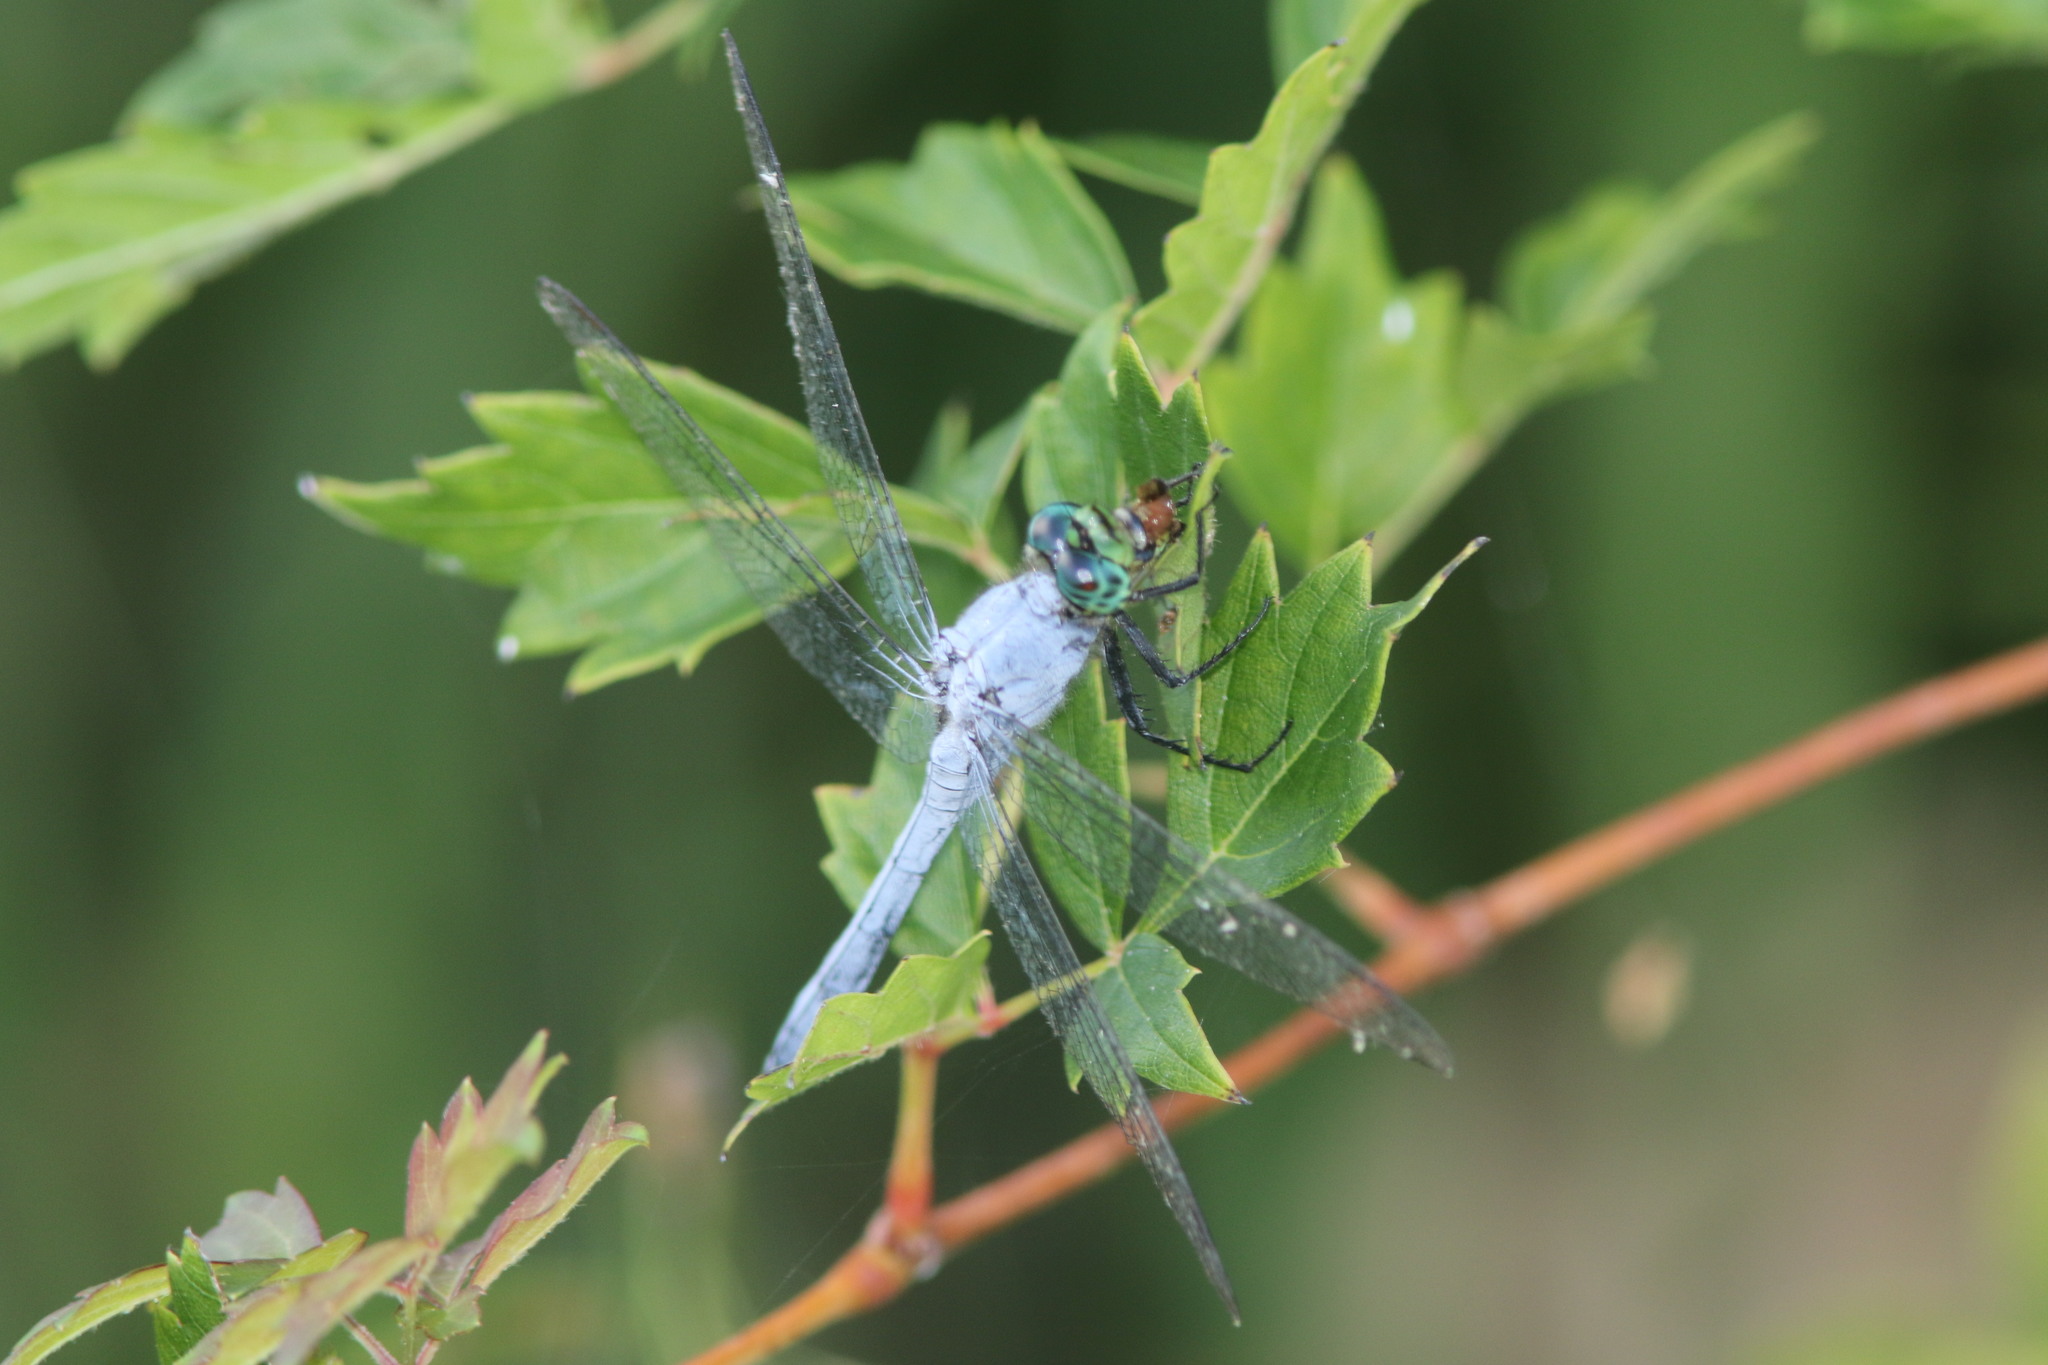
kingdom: Animalia
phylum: Arthropoda
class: Insecta
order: Odonata
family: Libellulidae
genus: Erythemis
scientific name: Erythemis simplicicollis
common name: Eastern pondhawk
